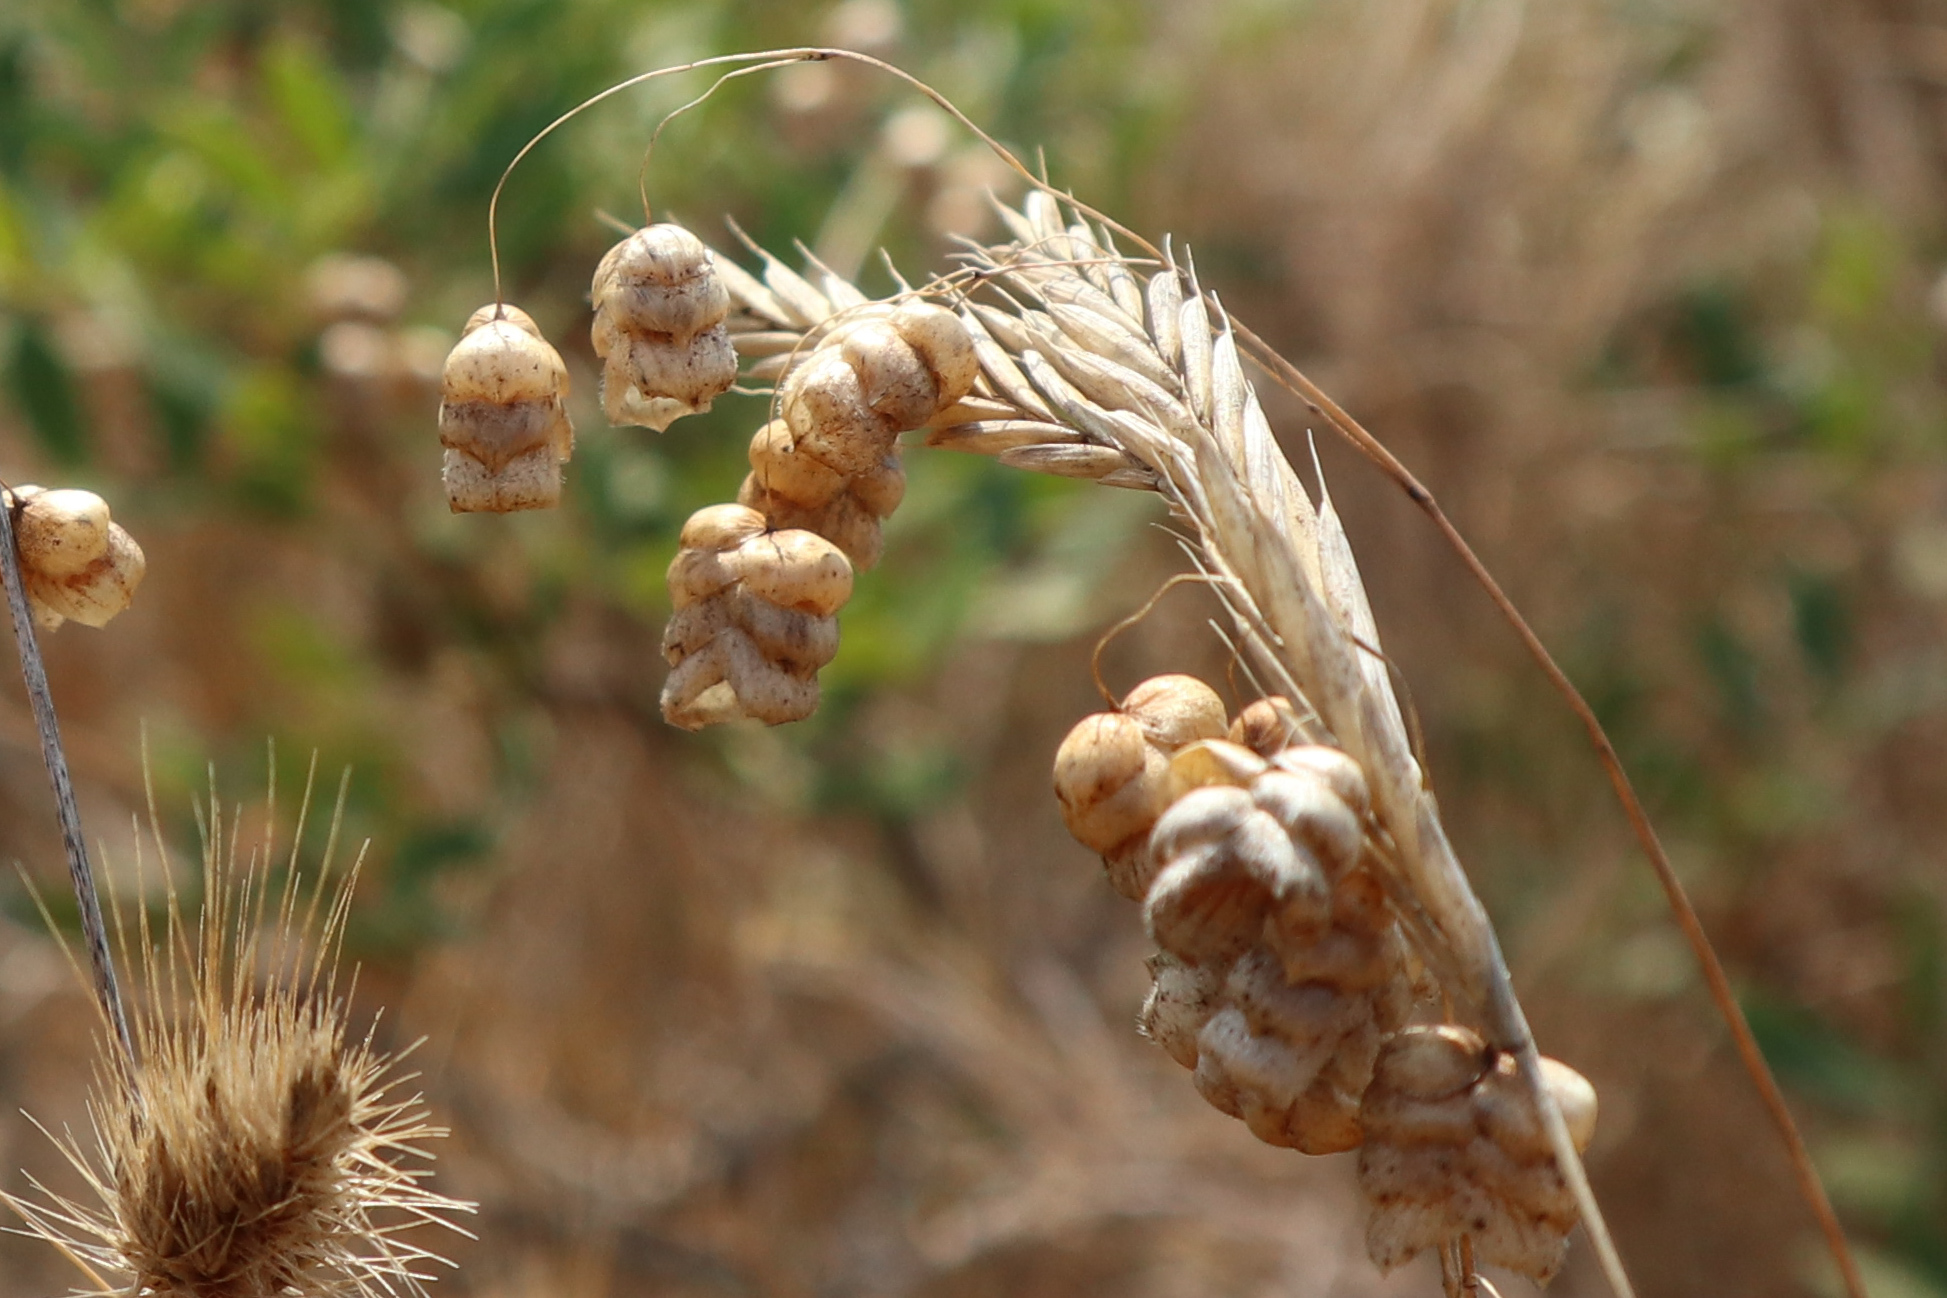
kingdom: Plantae
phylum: Tracheophyta
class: Liliopsida
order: Poales
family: Poaceae
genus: Briza
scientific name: Briza maxima
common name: Big quakinggrass
